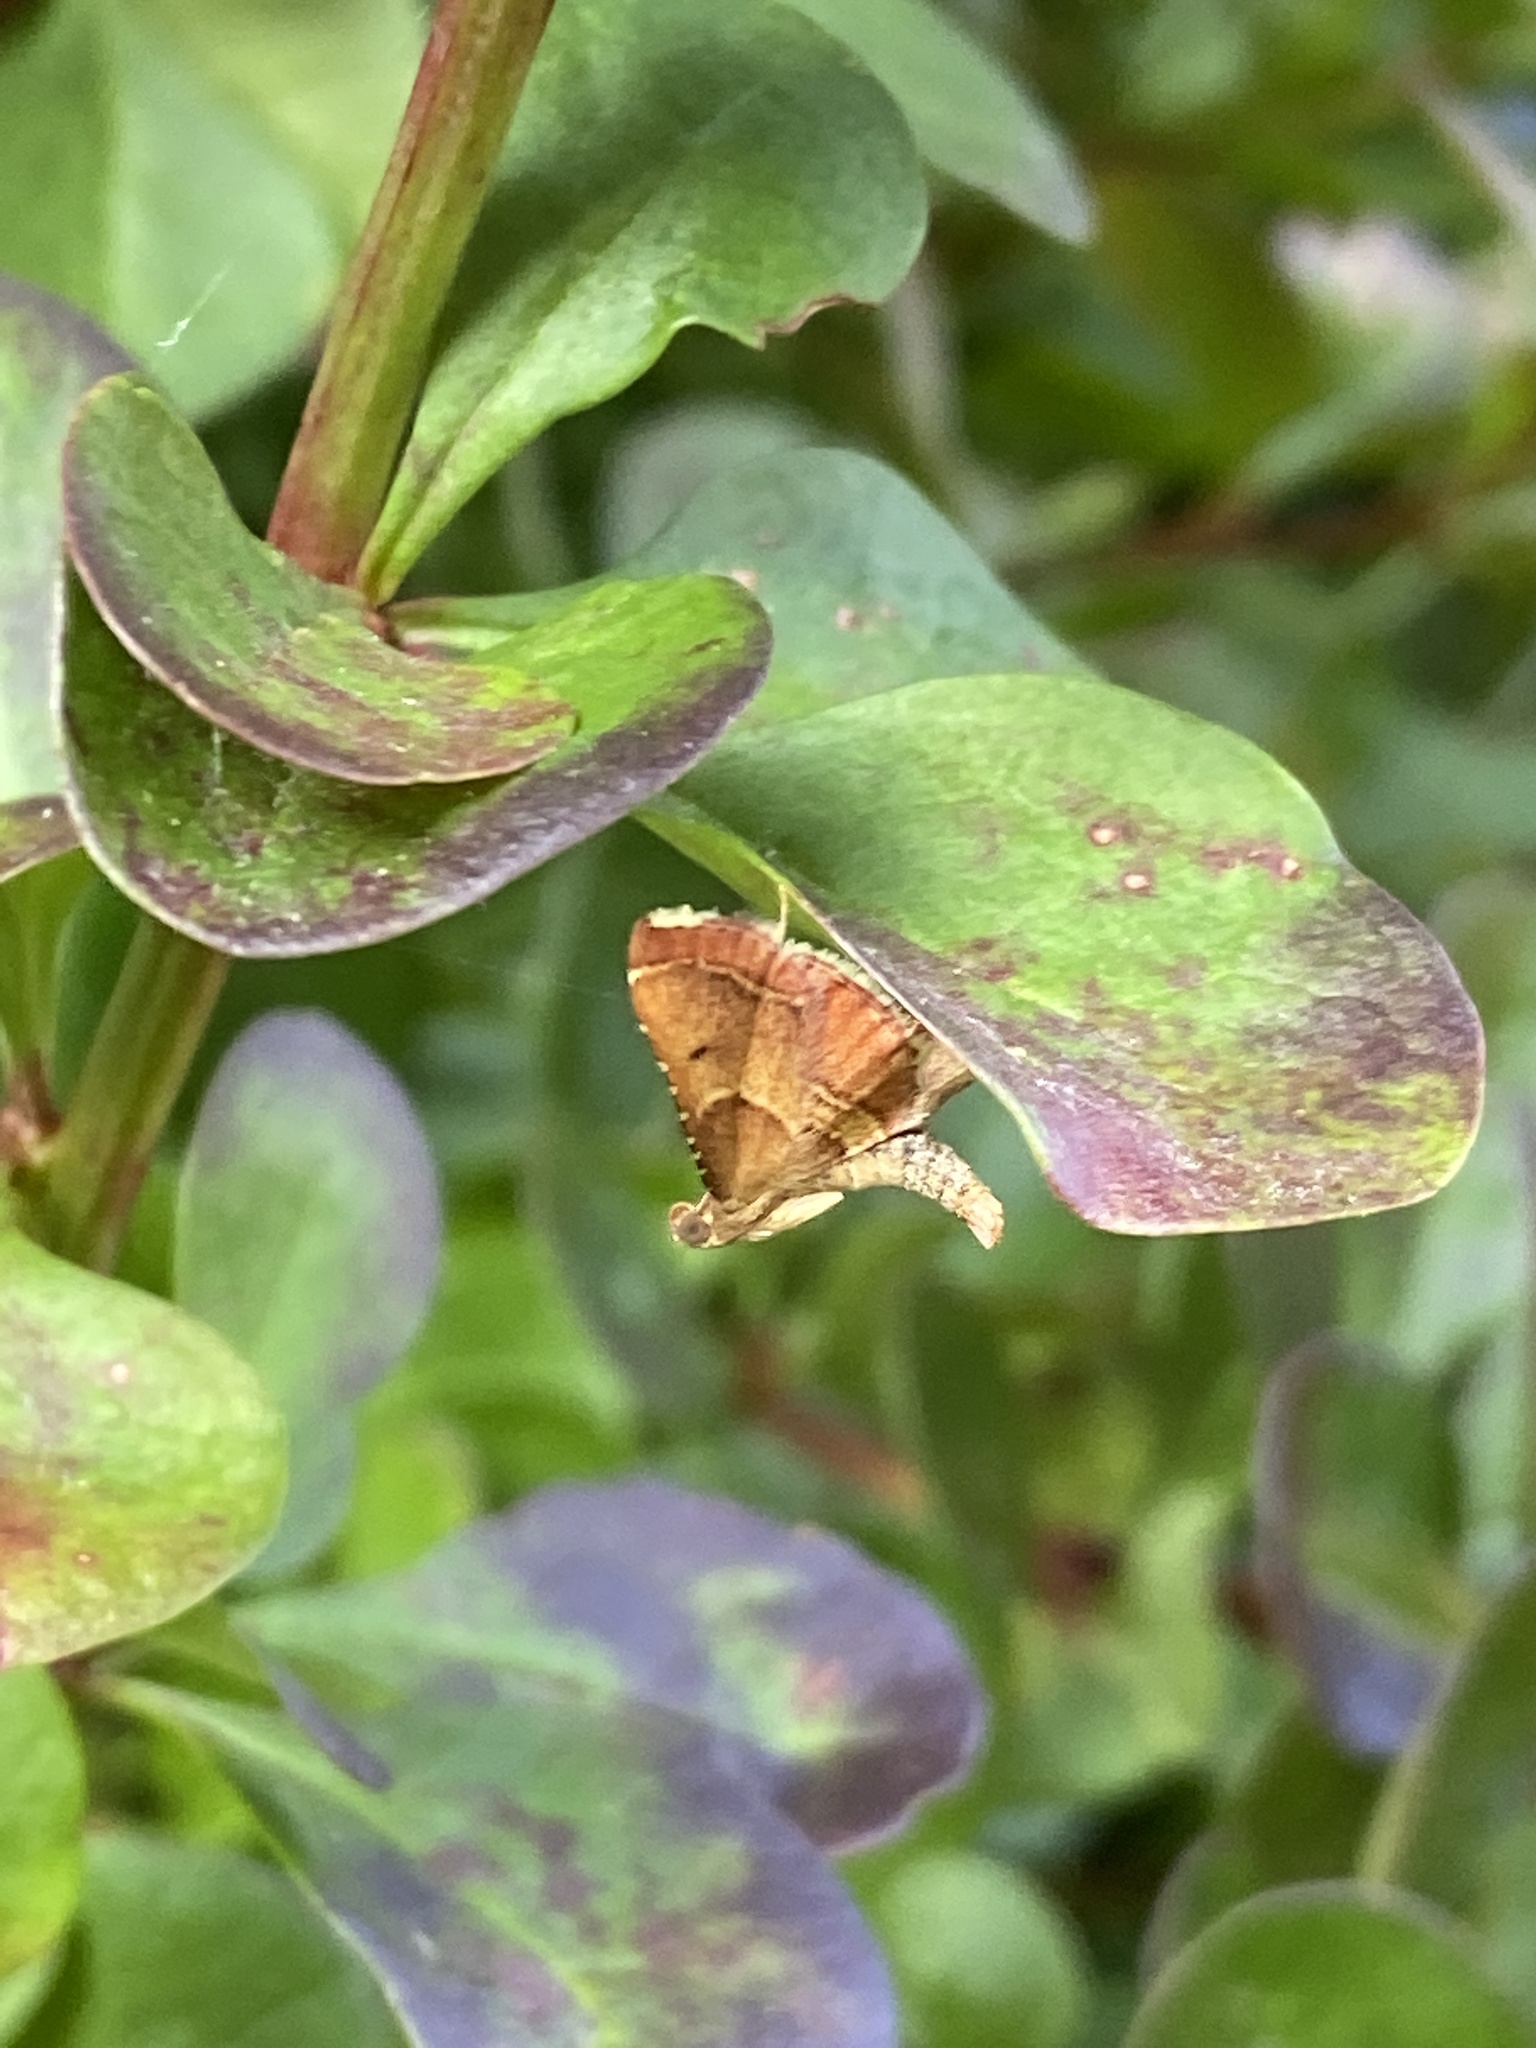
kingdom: Animalia
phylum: Arthropoda
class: Insecta
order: Lepidoptera
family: Pyralidae
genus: Endotricha
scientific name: Endotricha flammealis
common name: Rosy tabby
